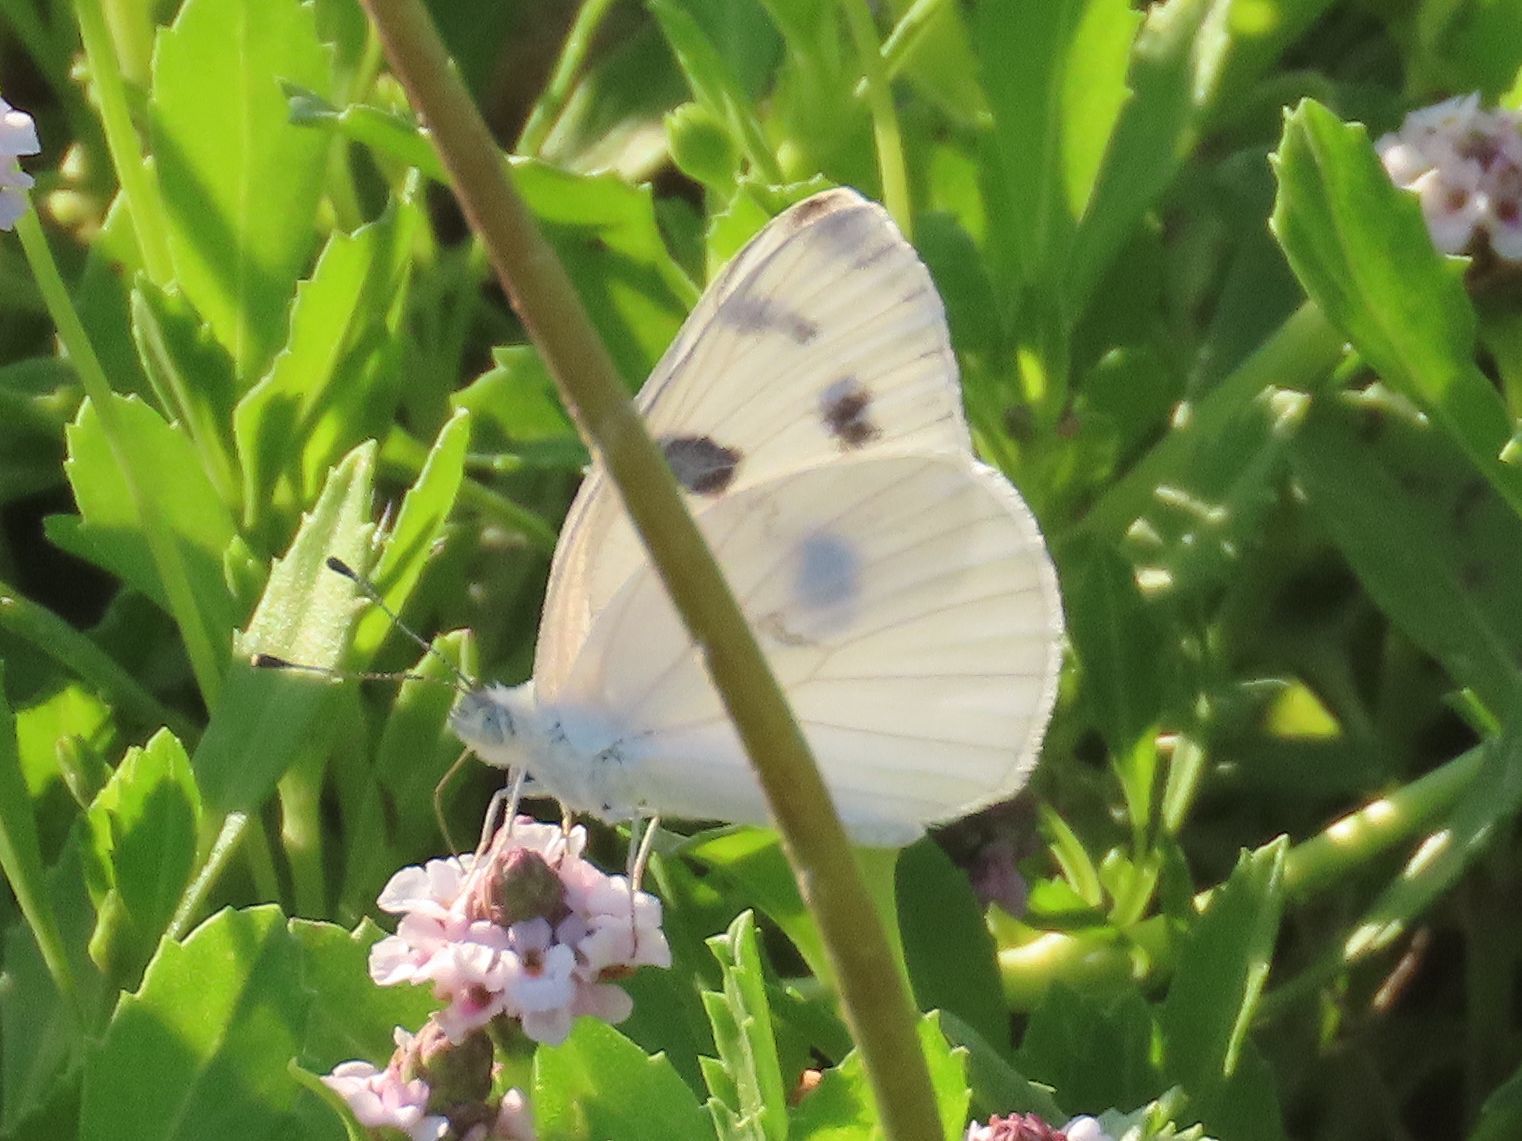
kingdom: Animalia
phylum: Arthropoda
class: Insecta
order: Lepidoptera
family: Pieridae
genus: Pontia
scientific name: Pontia protodice
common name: Checkered white
